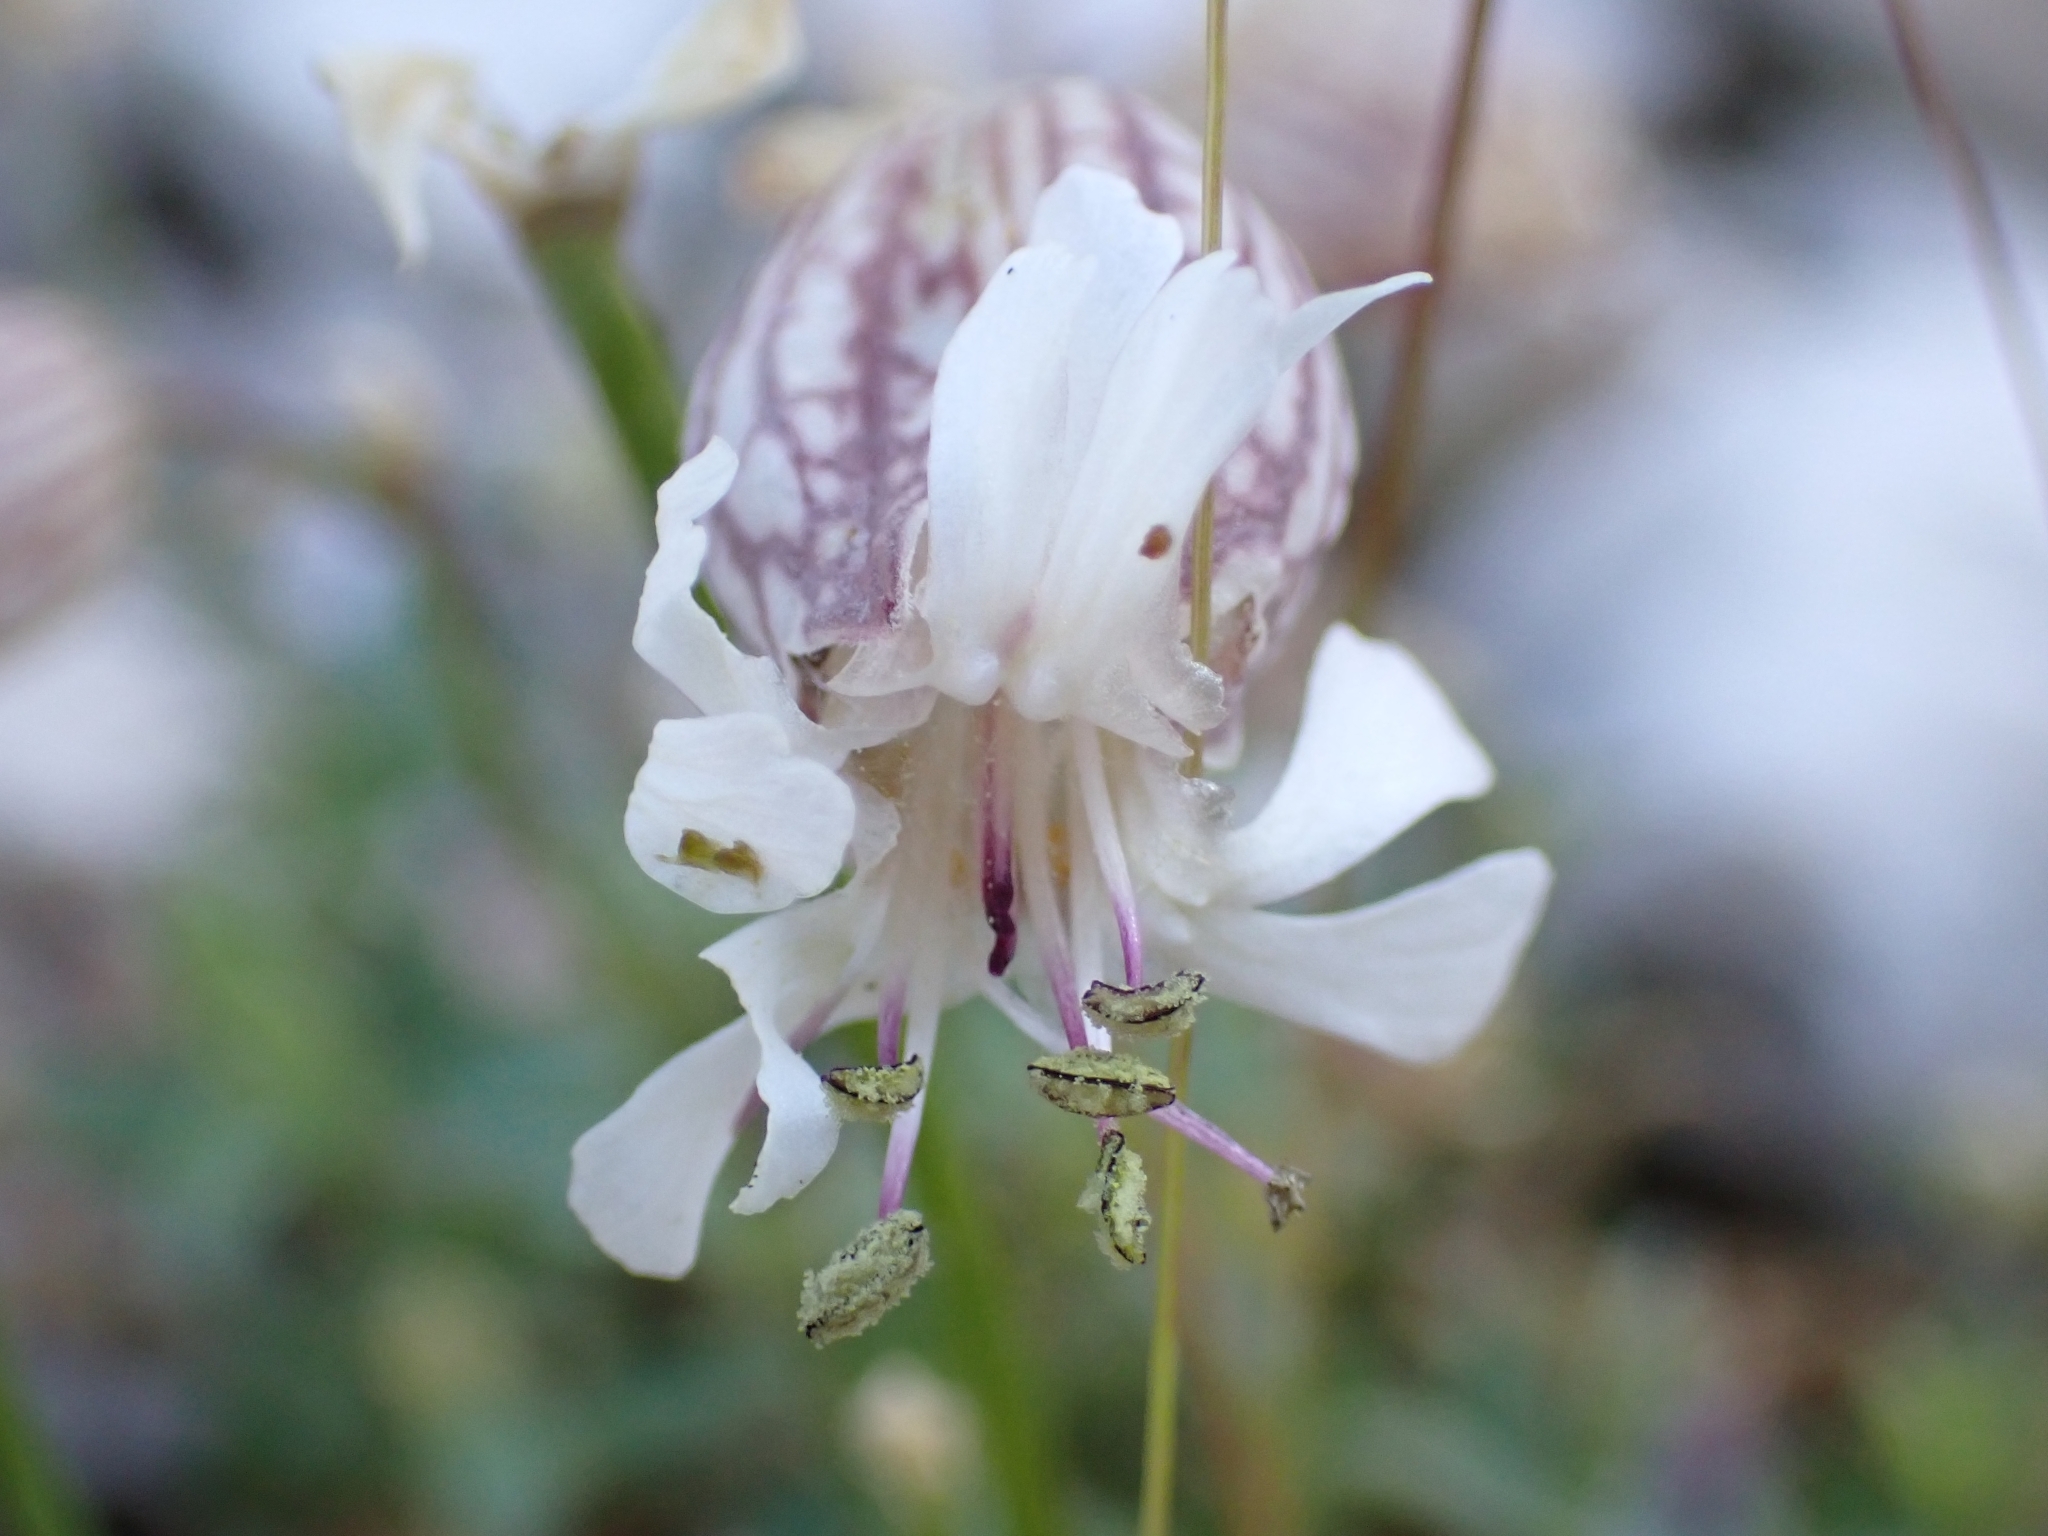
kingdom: Plantae
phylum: Tracheophyta
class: Magnoliopsida
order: Caryophyllales
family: Caryophyllaceae
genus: Silene
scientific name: Silene vulgaris
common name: Bladder campion
